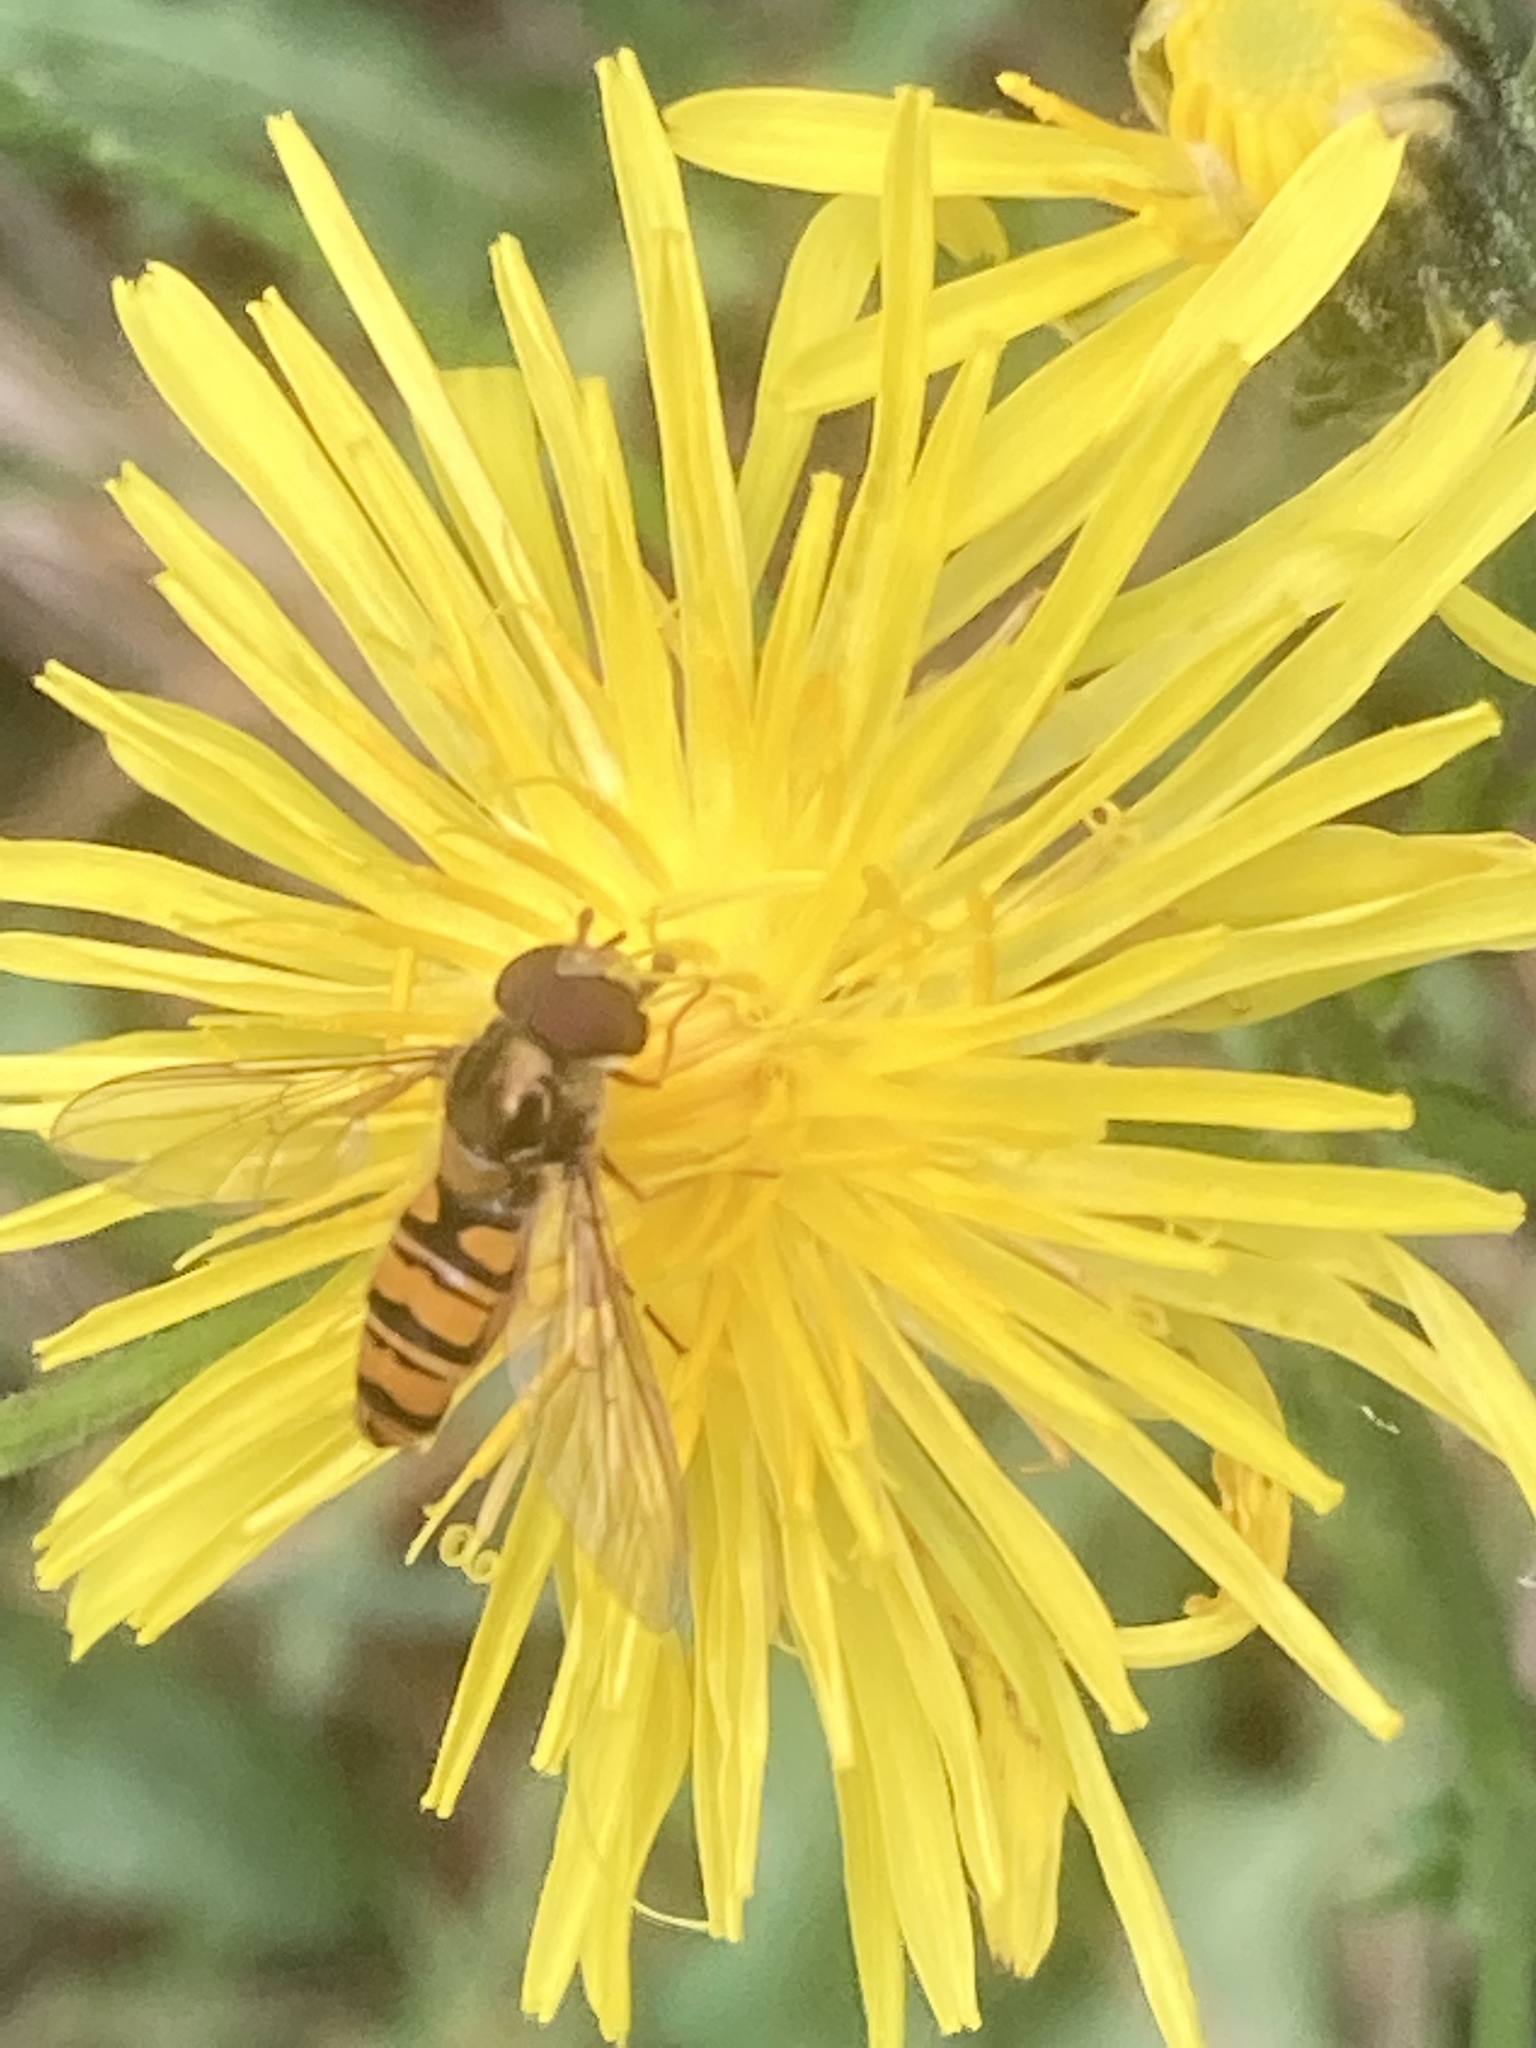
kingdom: Animalia
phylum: Arthropoda
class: Insecta
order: Diptera
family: Syrphidae
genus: Episyrphus
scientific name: Episyrphus balteatus
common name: Marmalade hoverfly
